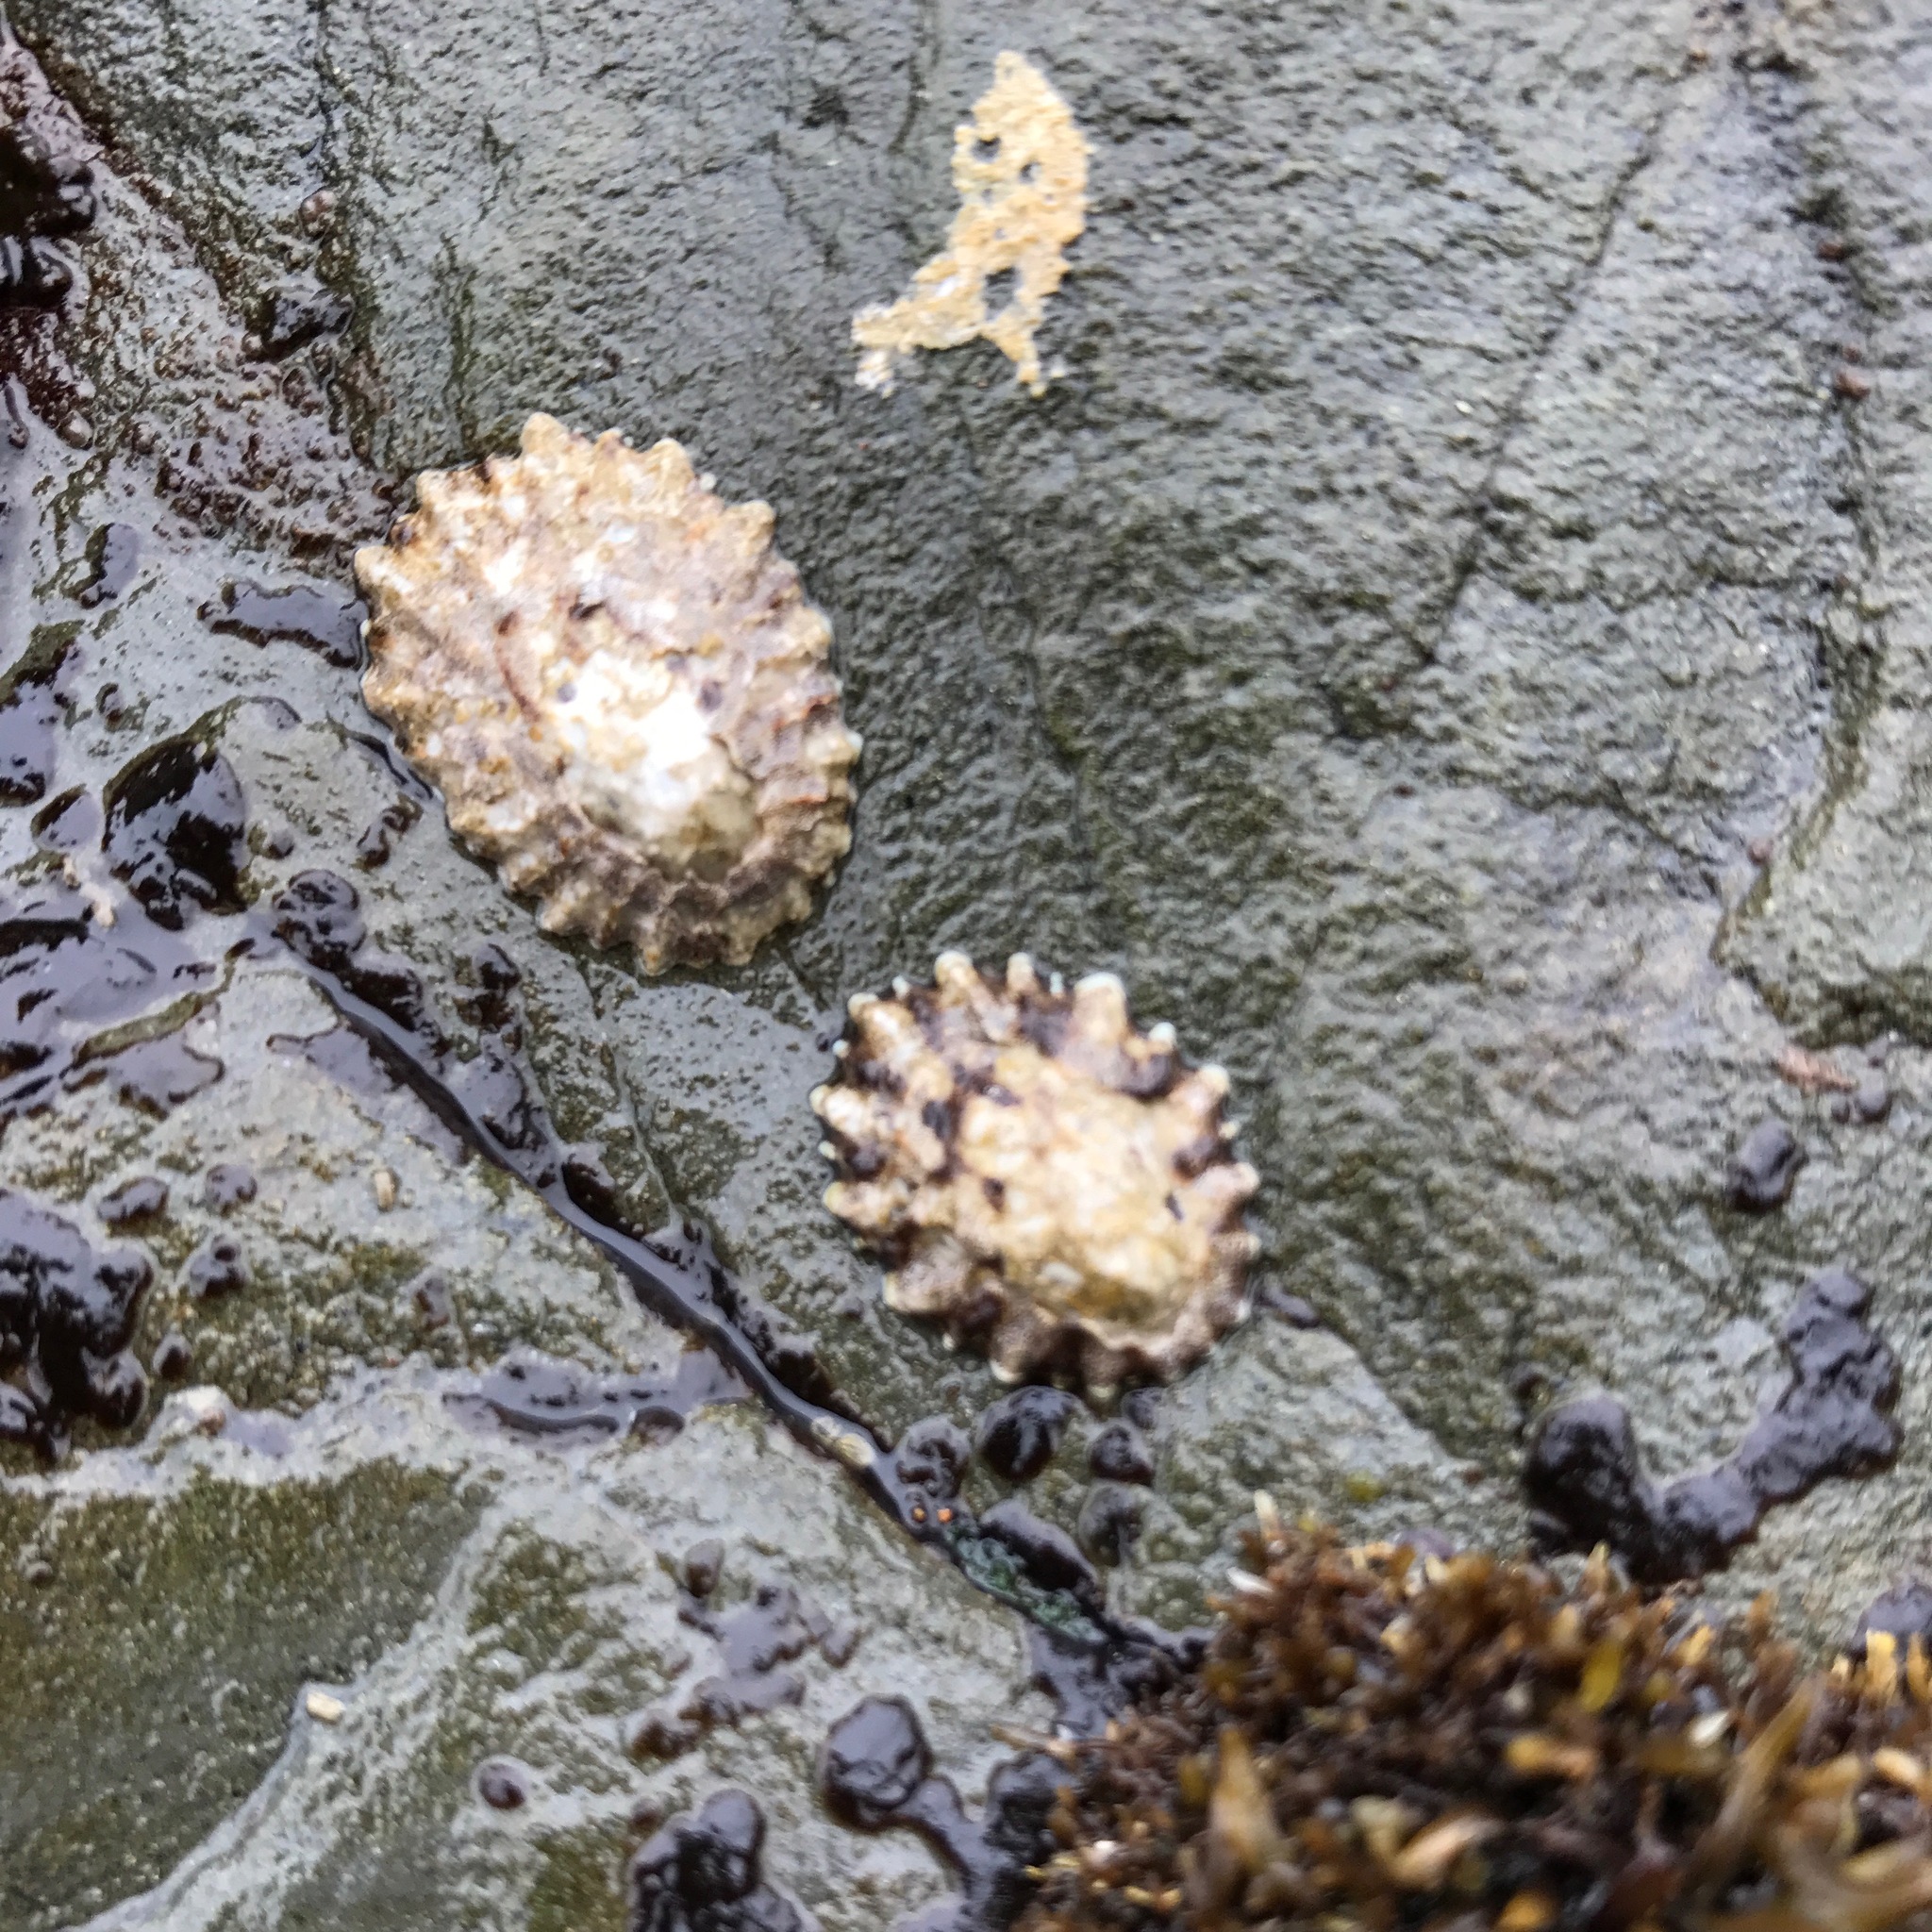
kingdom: Animalia
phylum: Mollusca
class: Gastropoda
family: Lottiidae
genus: Lottia
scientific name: Lottia scabra
